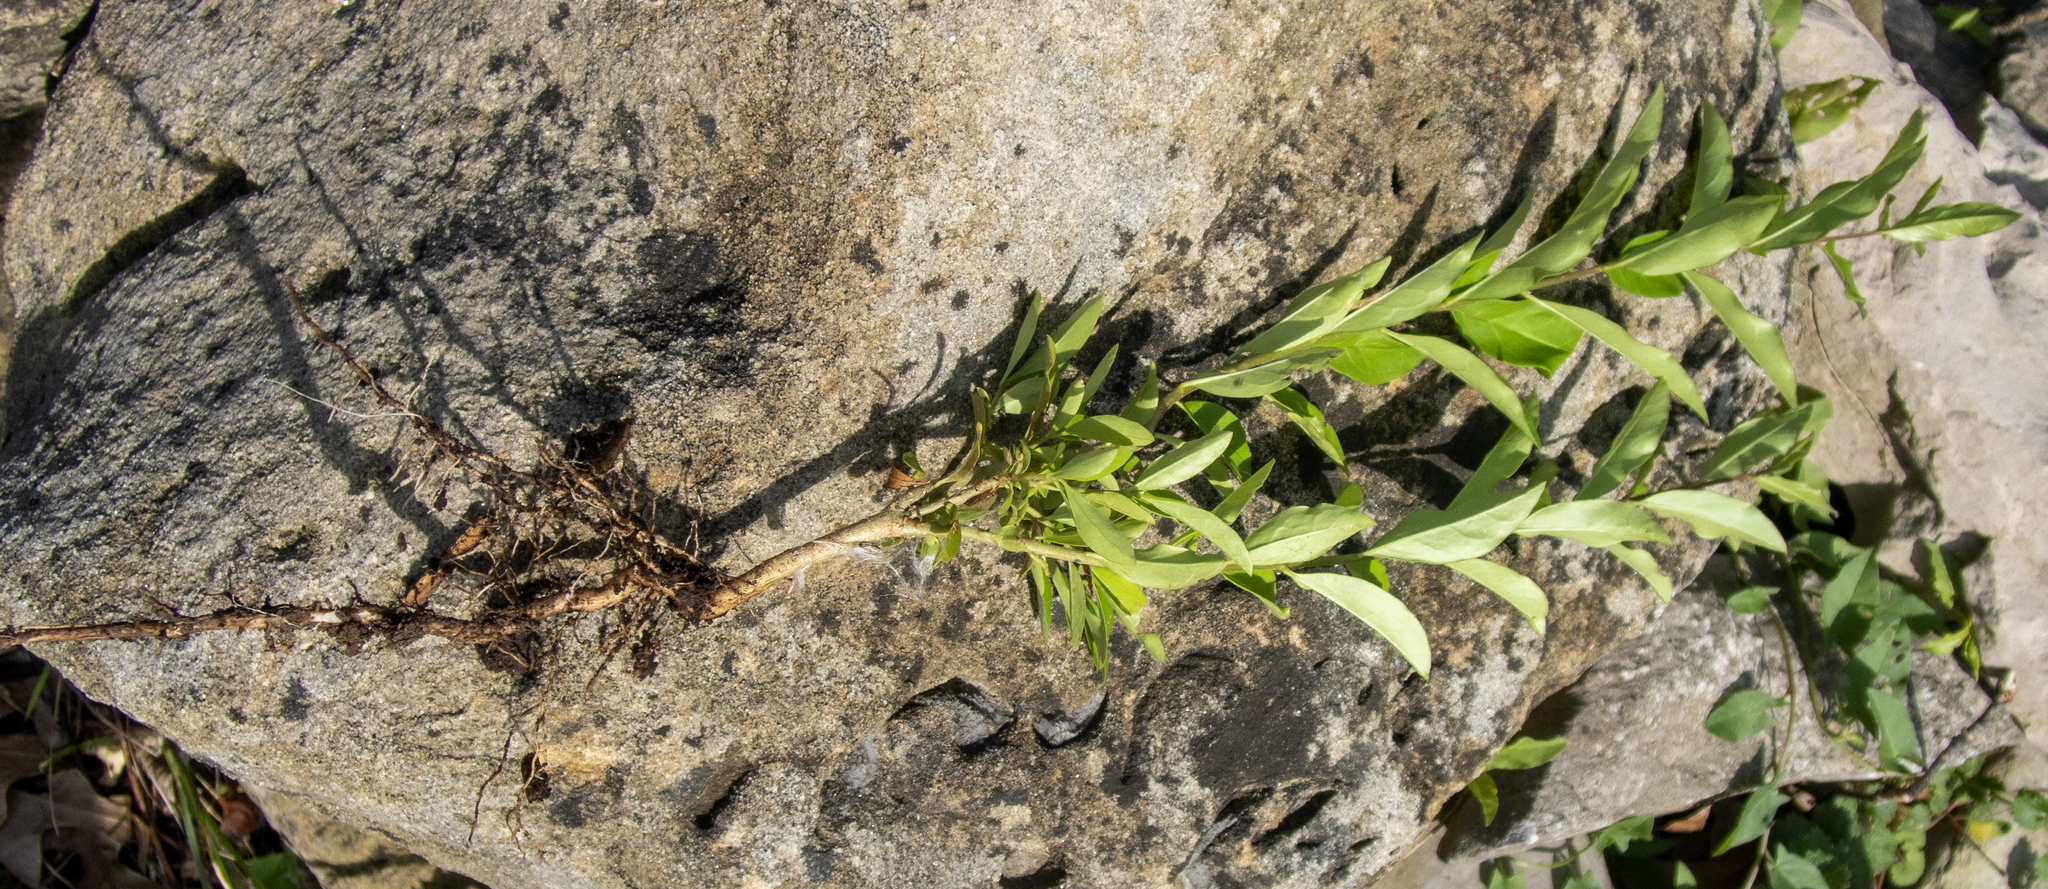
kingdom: Plantae
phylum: Tracheophyta
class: Magnoliopsida
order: Lamiales
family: Oleaceae
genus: Ligustrum
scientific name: Ligustrum
